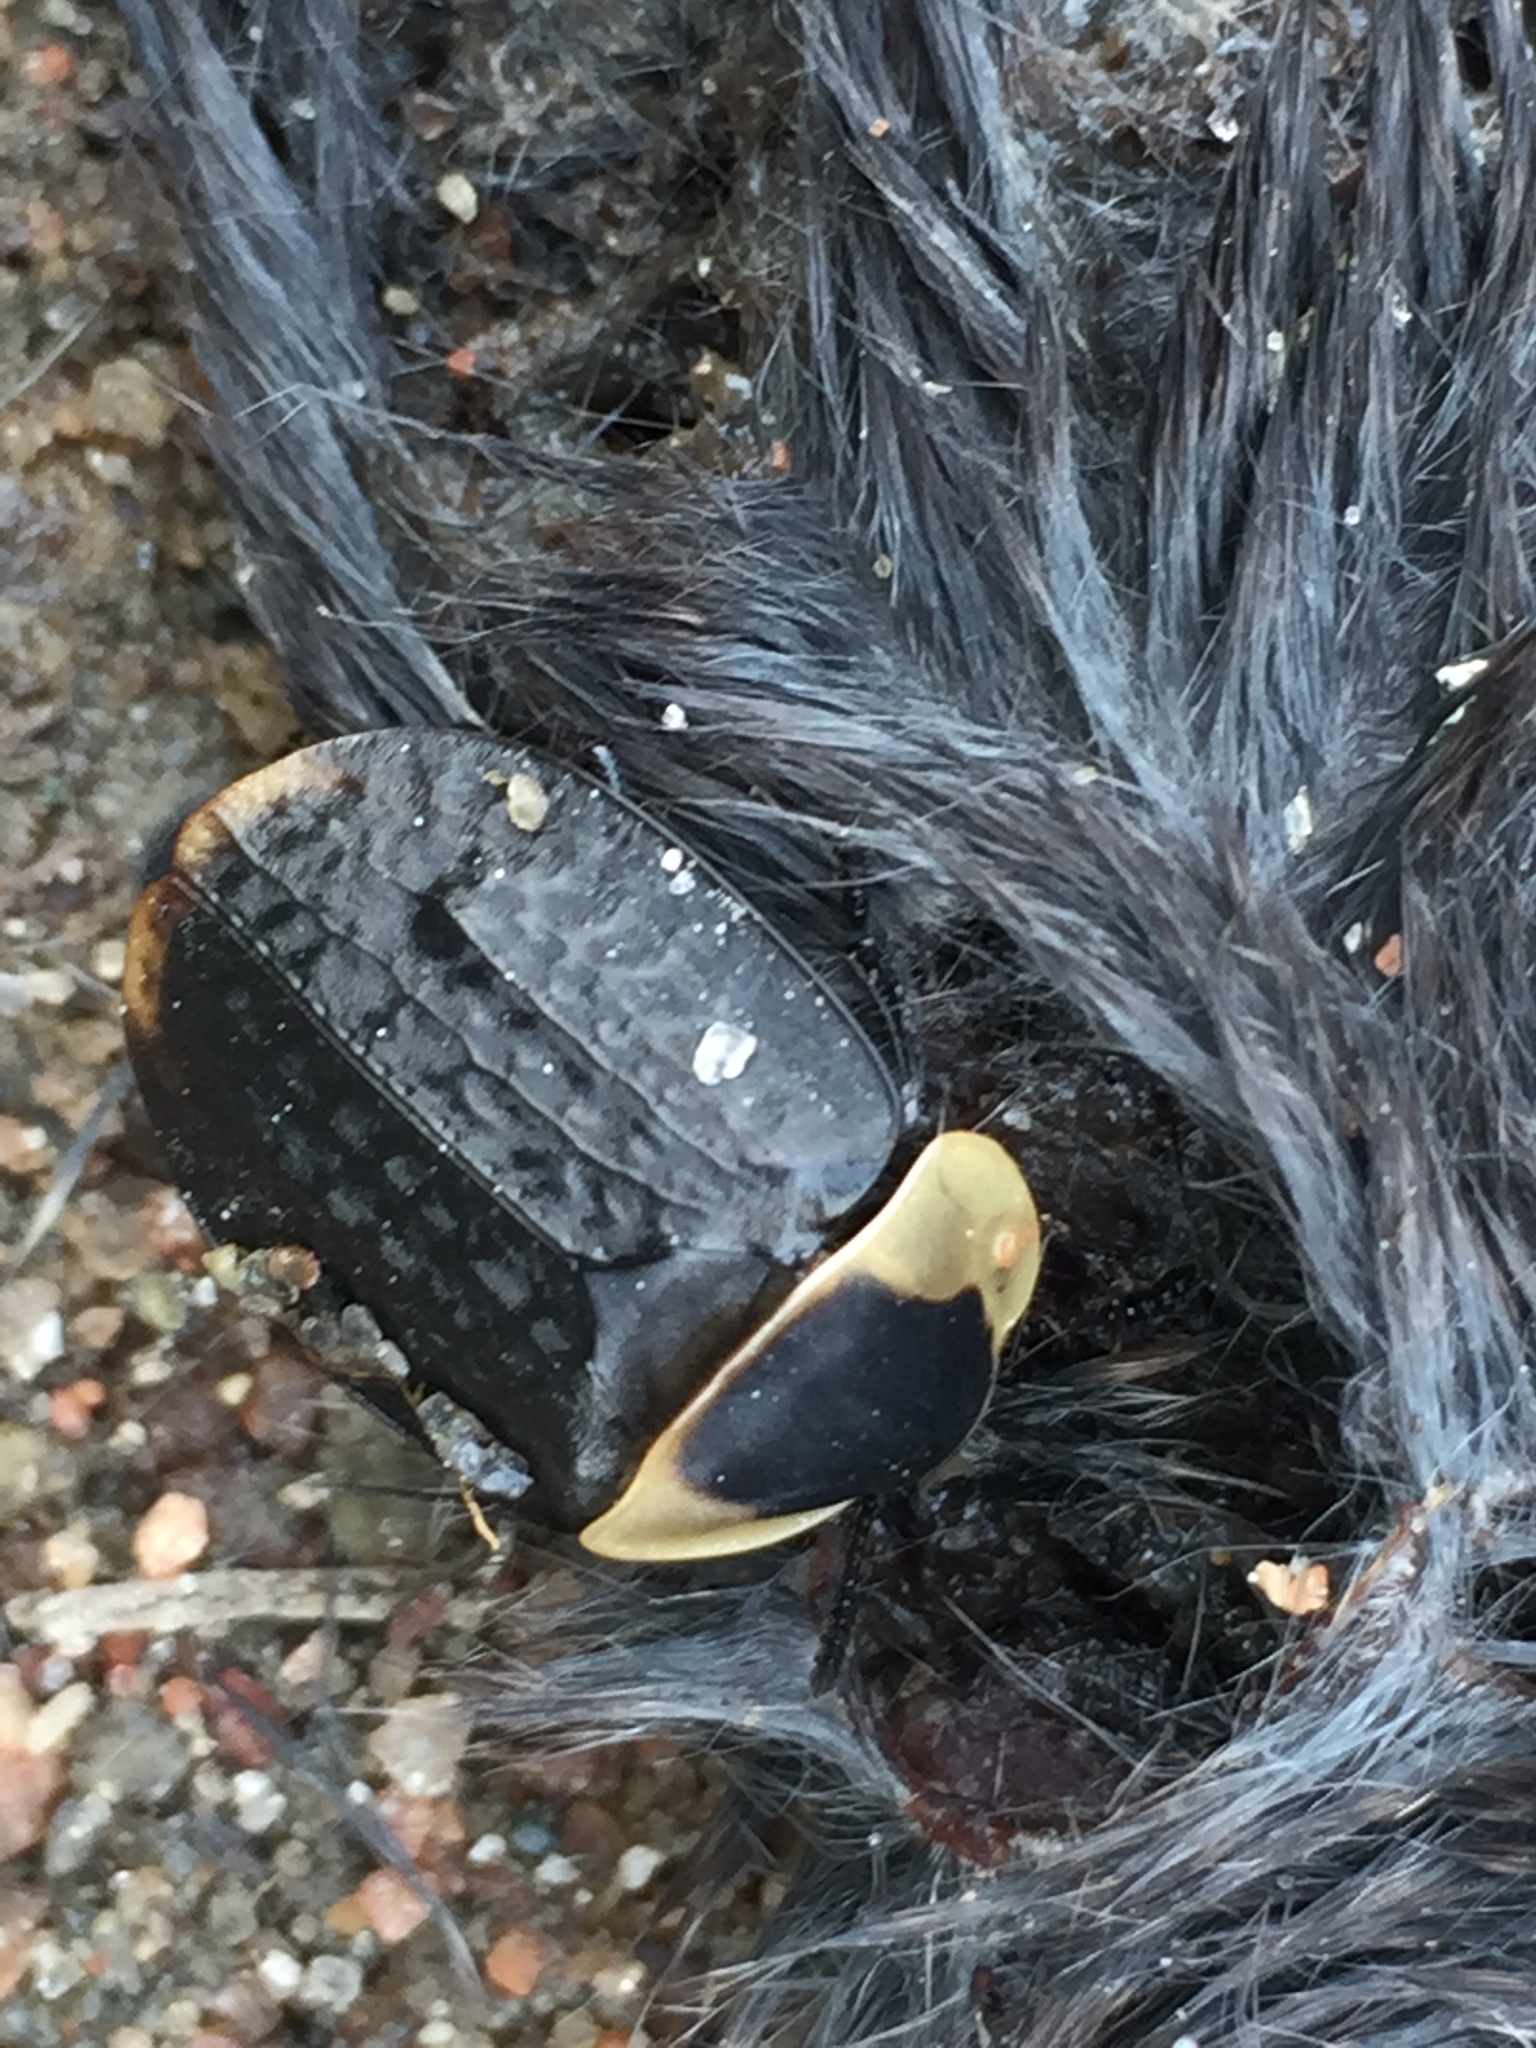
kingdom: Animalia
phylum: Arthropoda
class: Insecta
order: Coleoptera
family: Staphylinidae
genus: Necrophila
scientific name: Necrophila americana
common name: American carrion beetle
